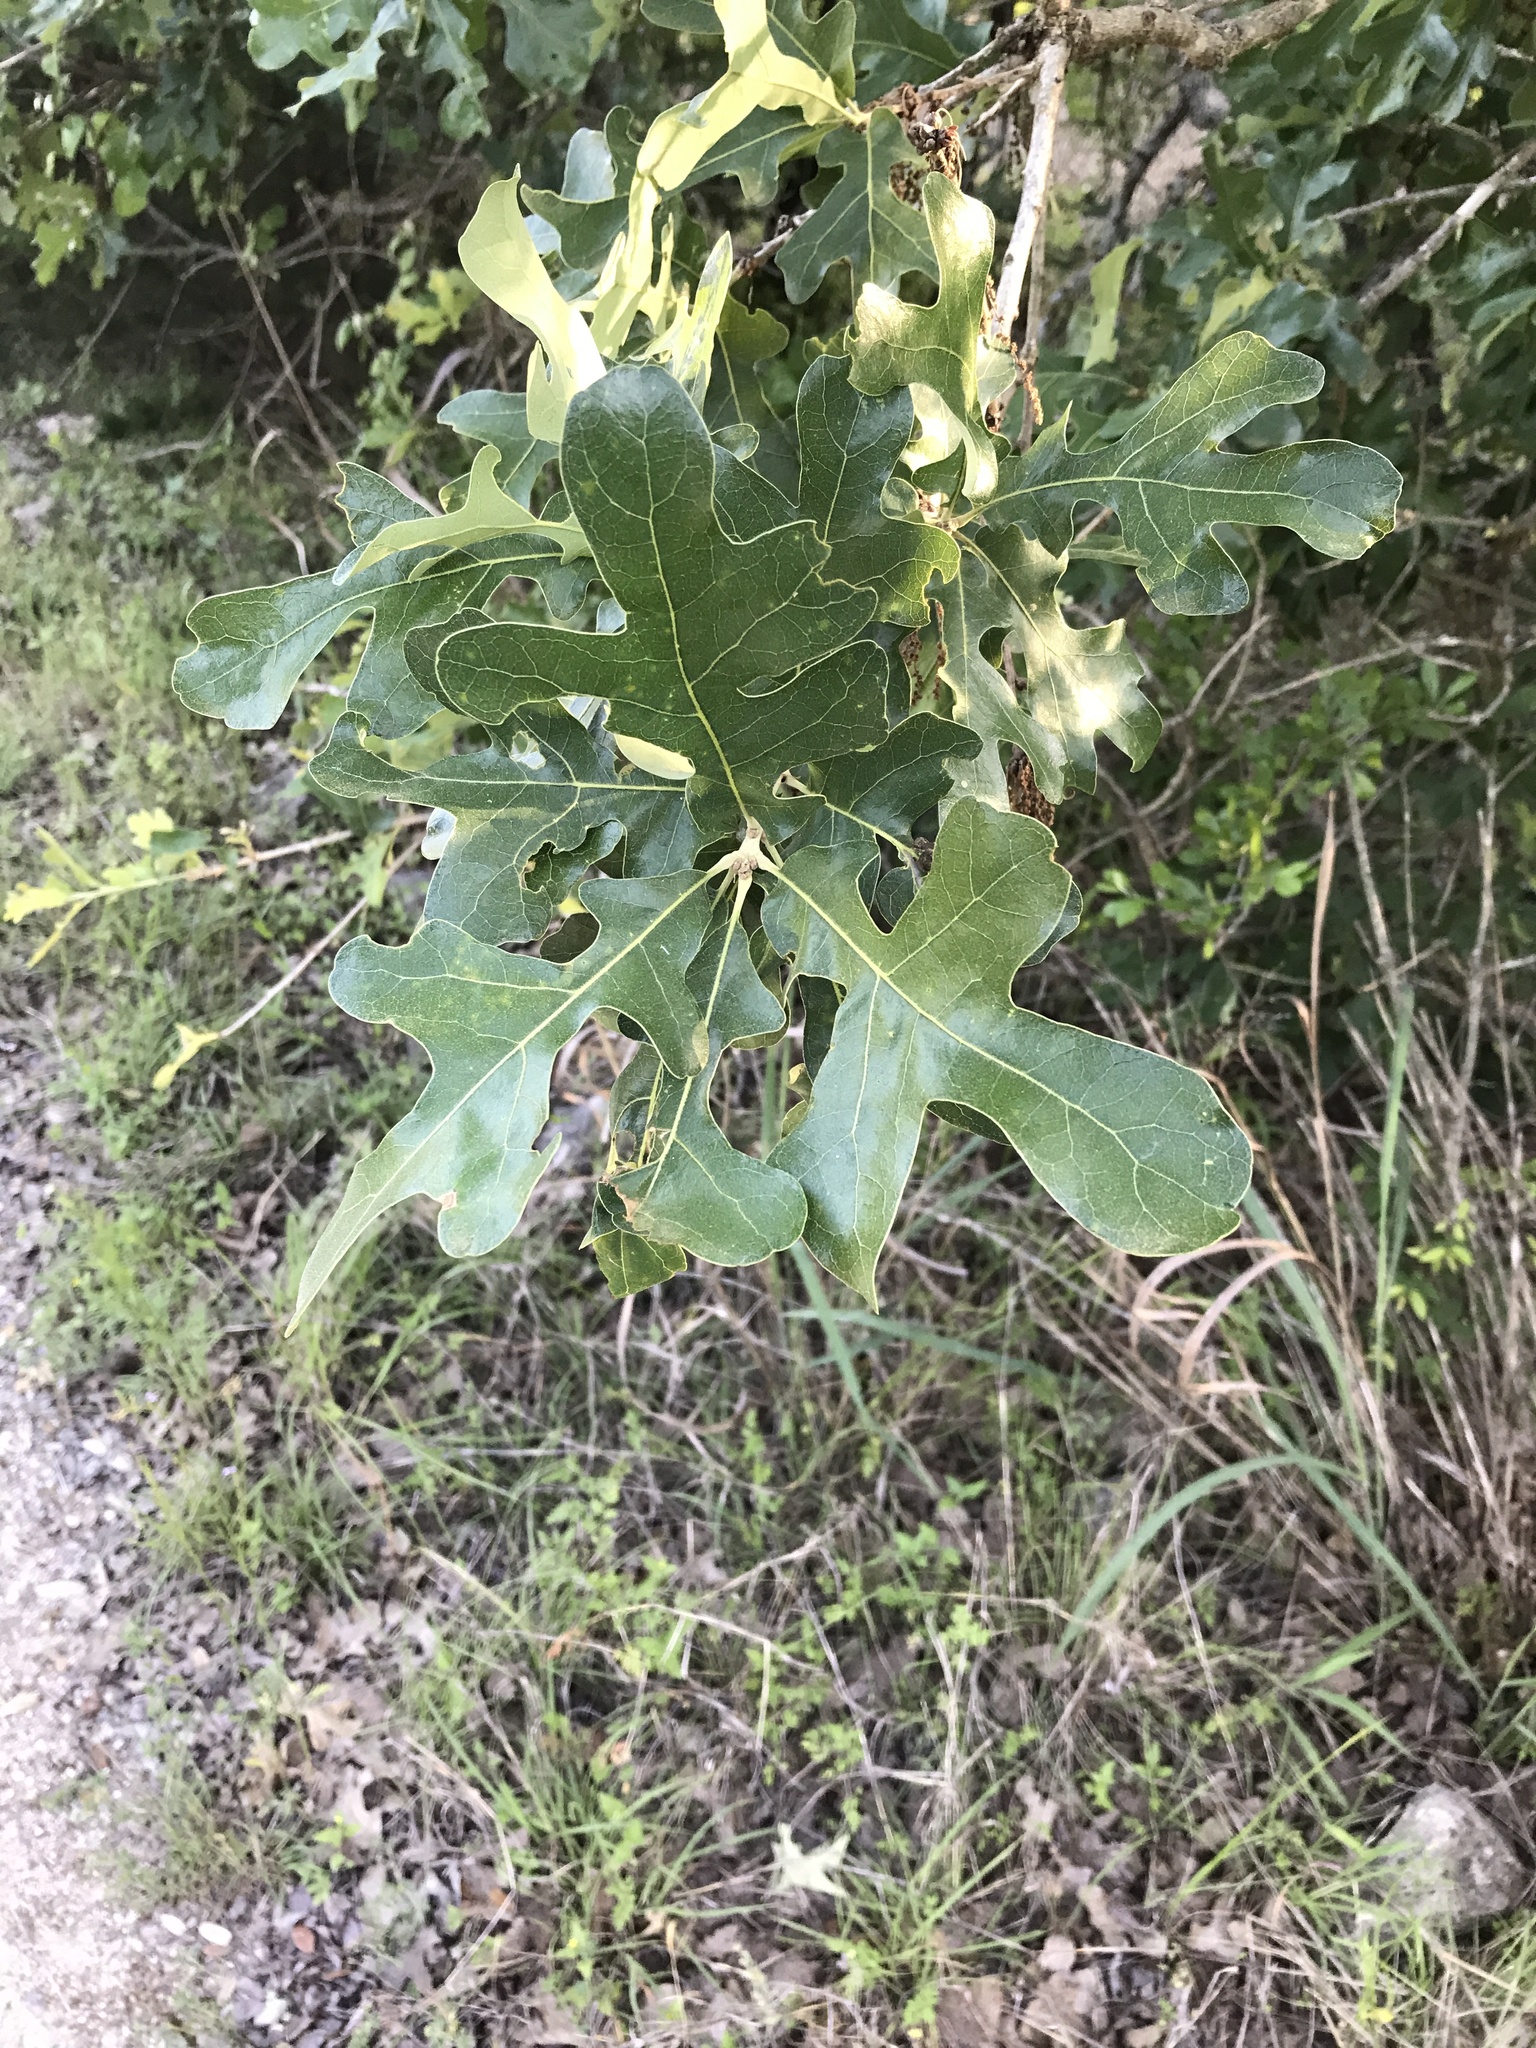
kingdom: Plantae
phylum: Tracheophyta
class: Magnoliopsida
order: Fagales
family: Fagaceae
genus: Quercus
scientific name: Quercus stellata
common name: Post oak
